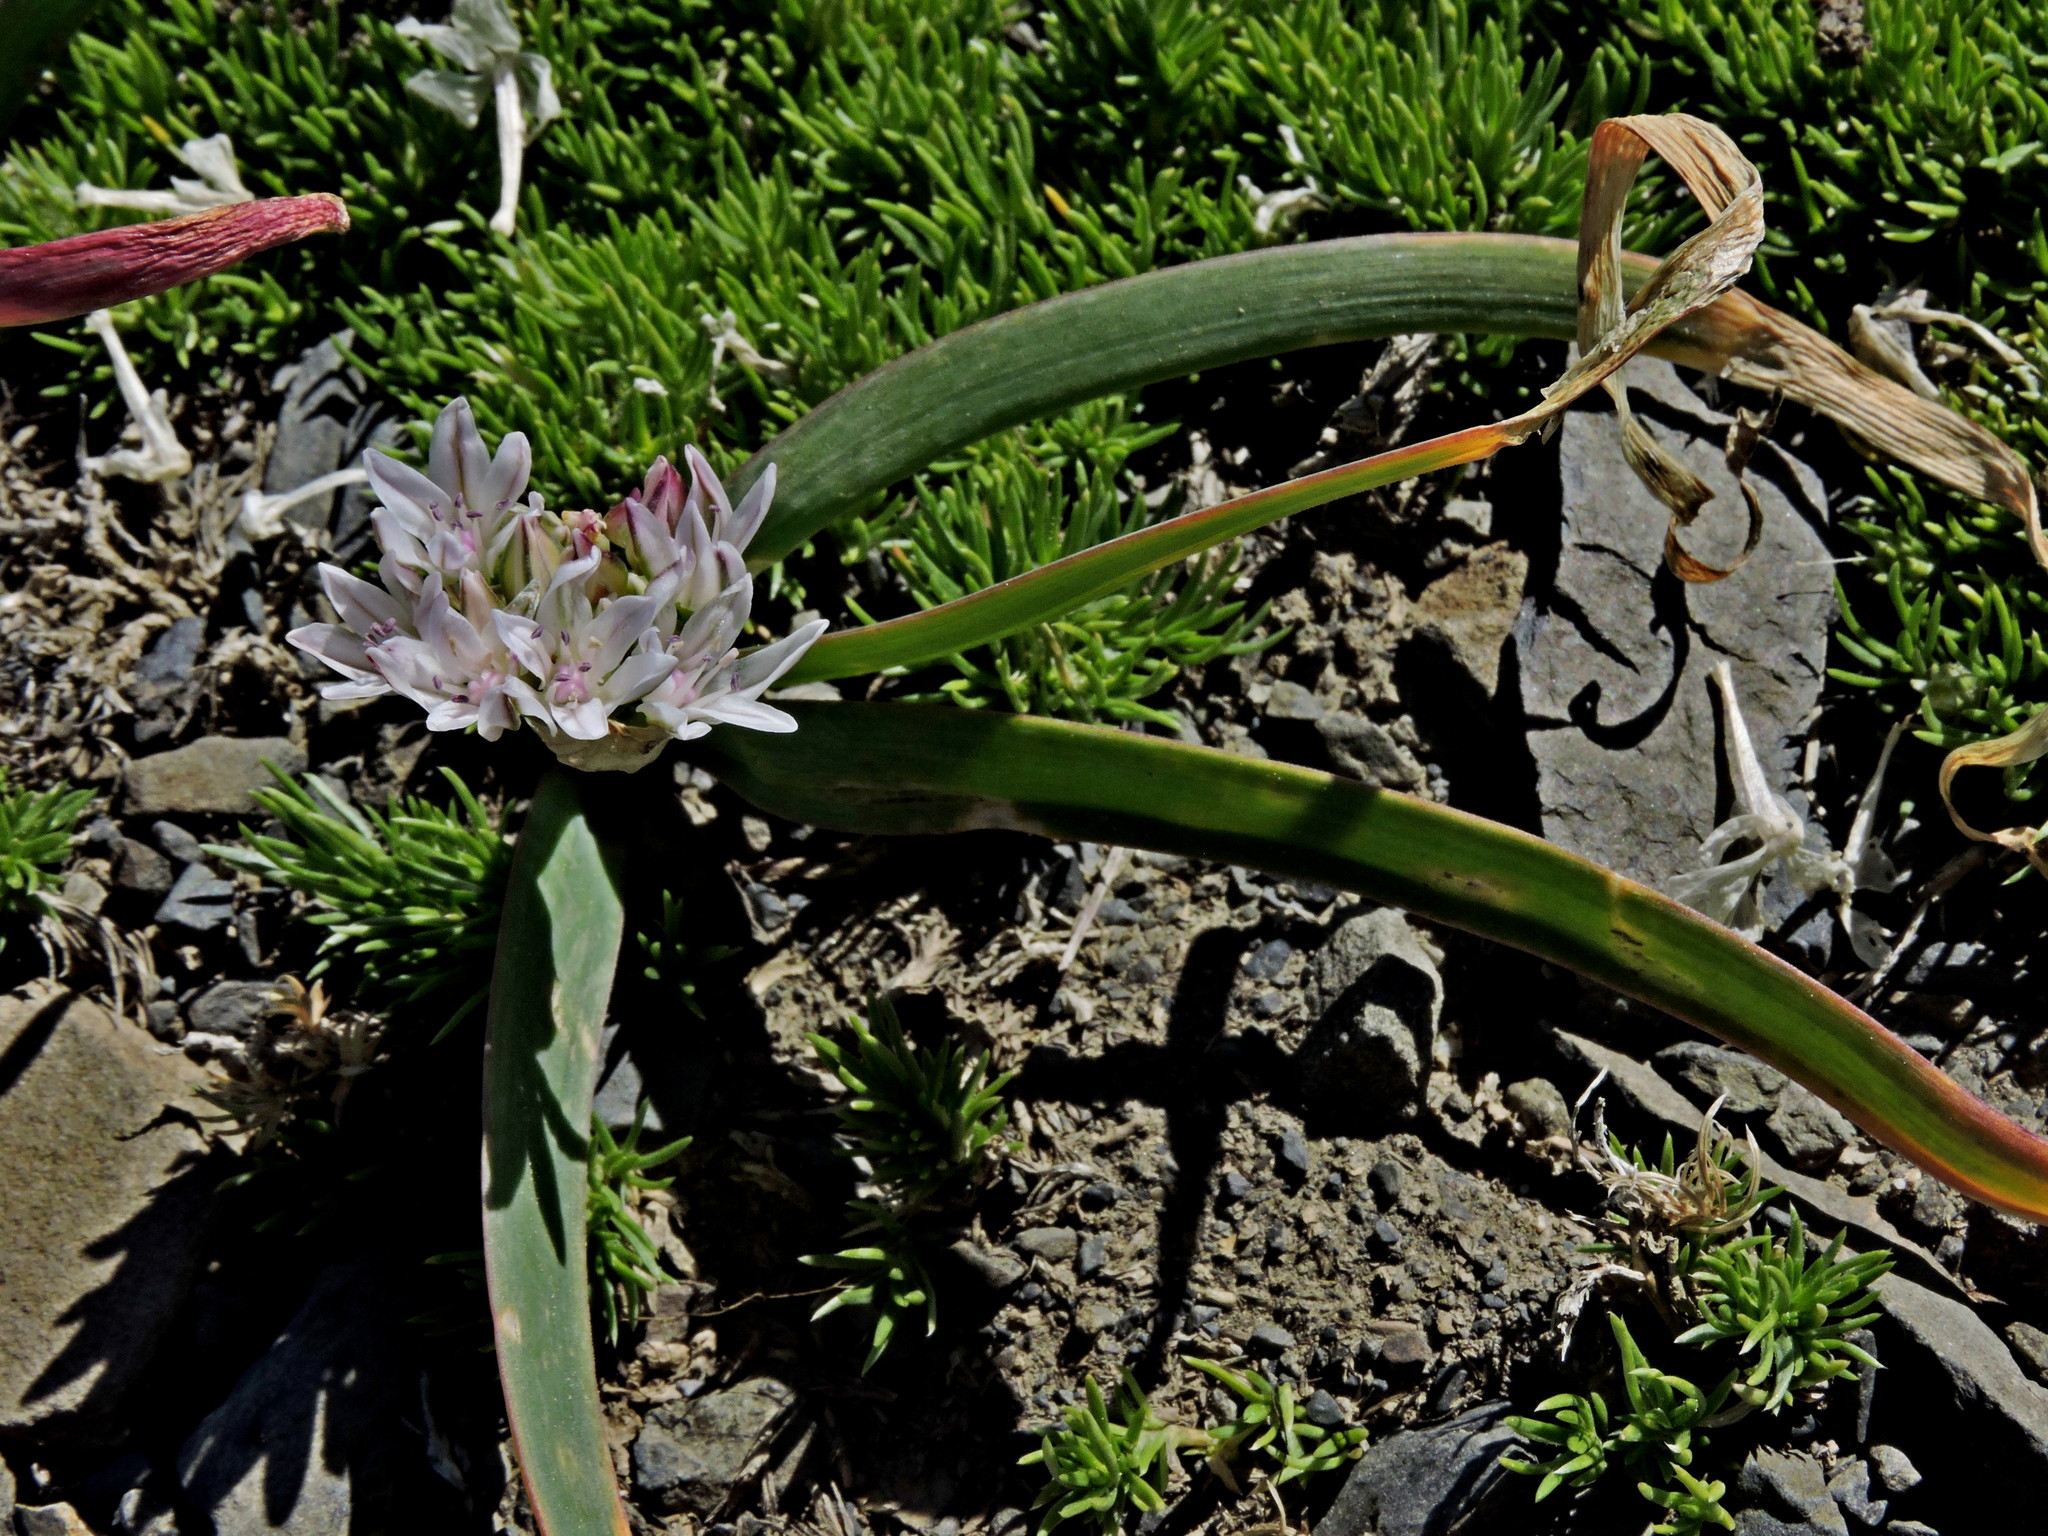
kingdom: Plantae
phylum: Tracheophyta
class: Liliopsida
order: Asparagales
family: Amaryllidaceae
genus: Allium
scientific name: Allium crenulatum
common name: Olympic onion
